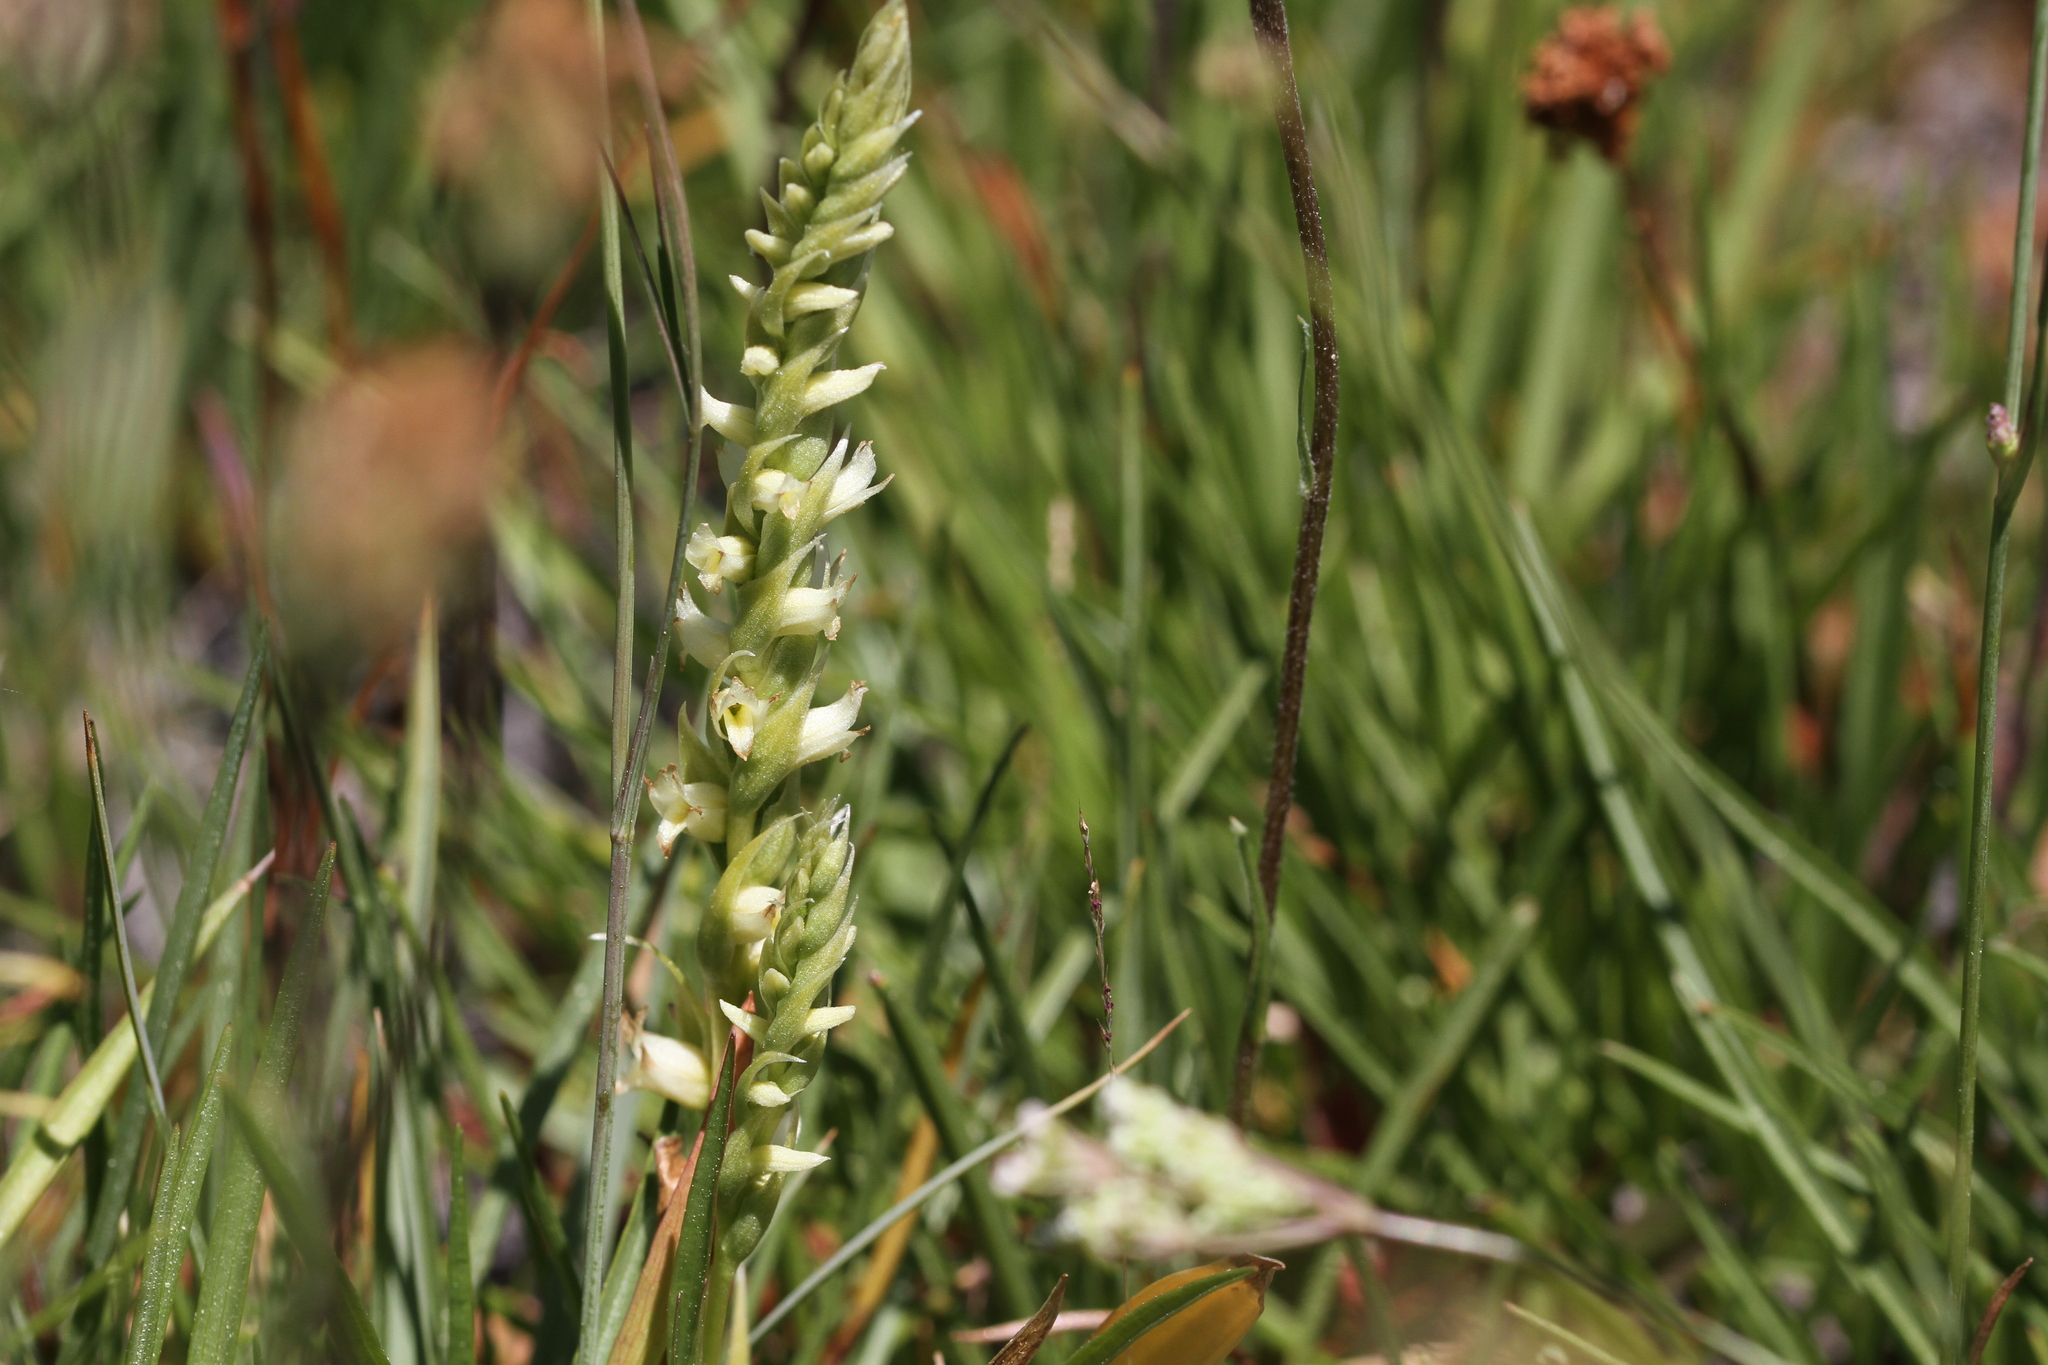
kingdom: Plantae
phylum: Tracheophyta
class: Liliopsida
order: Asparagales
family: Orchidaceae
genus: Spiranthes
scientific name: Spiranthes stellata
